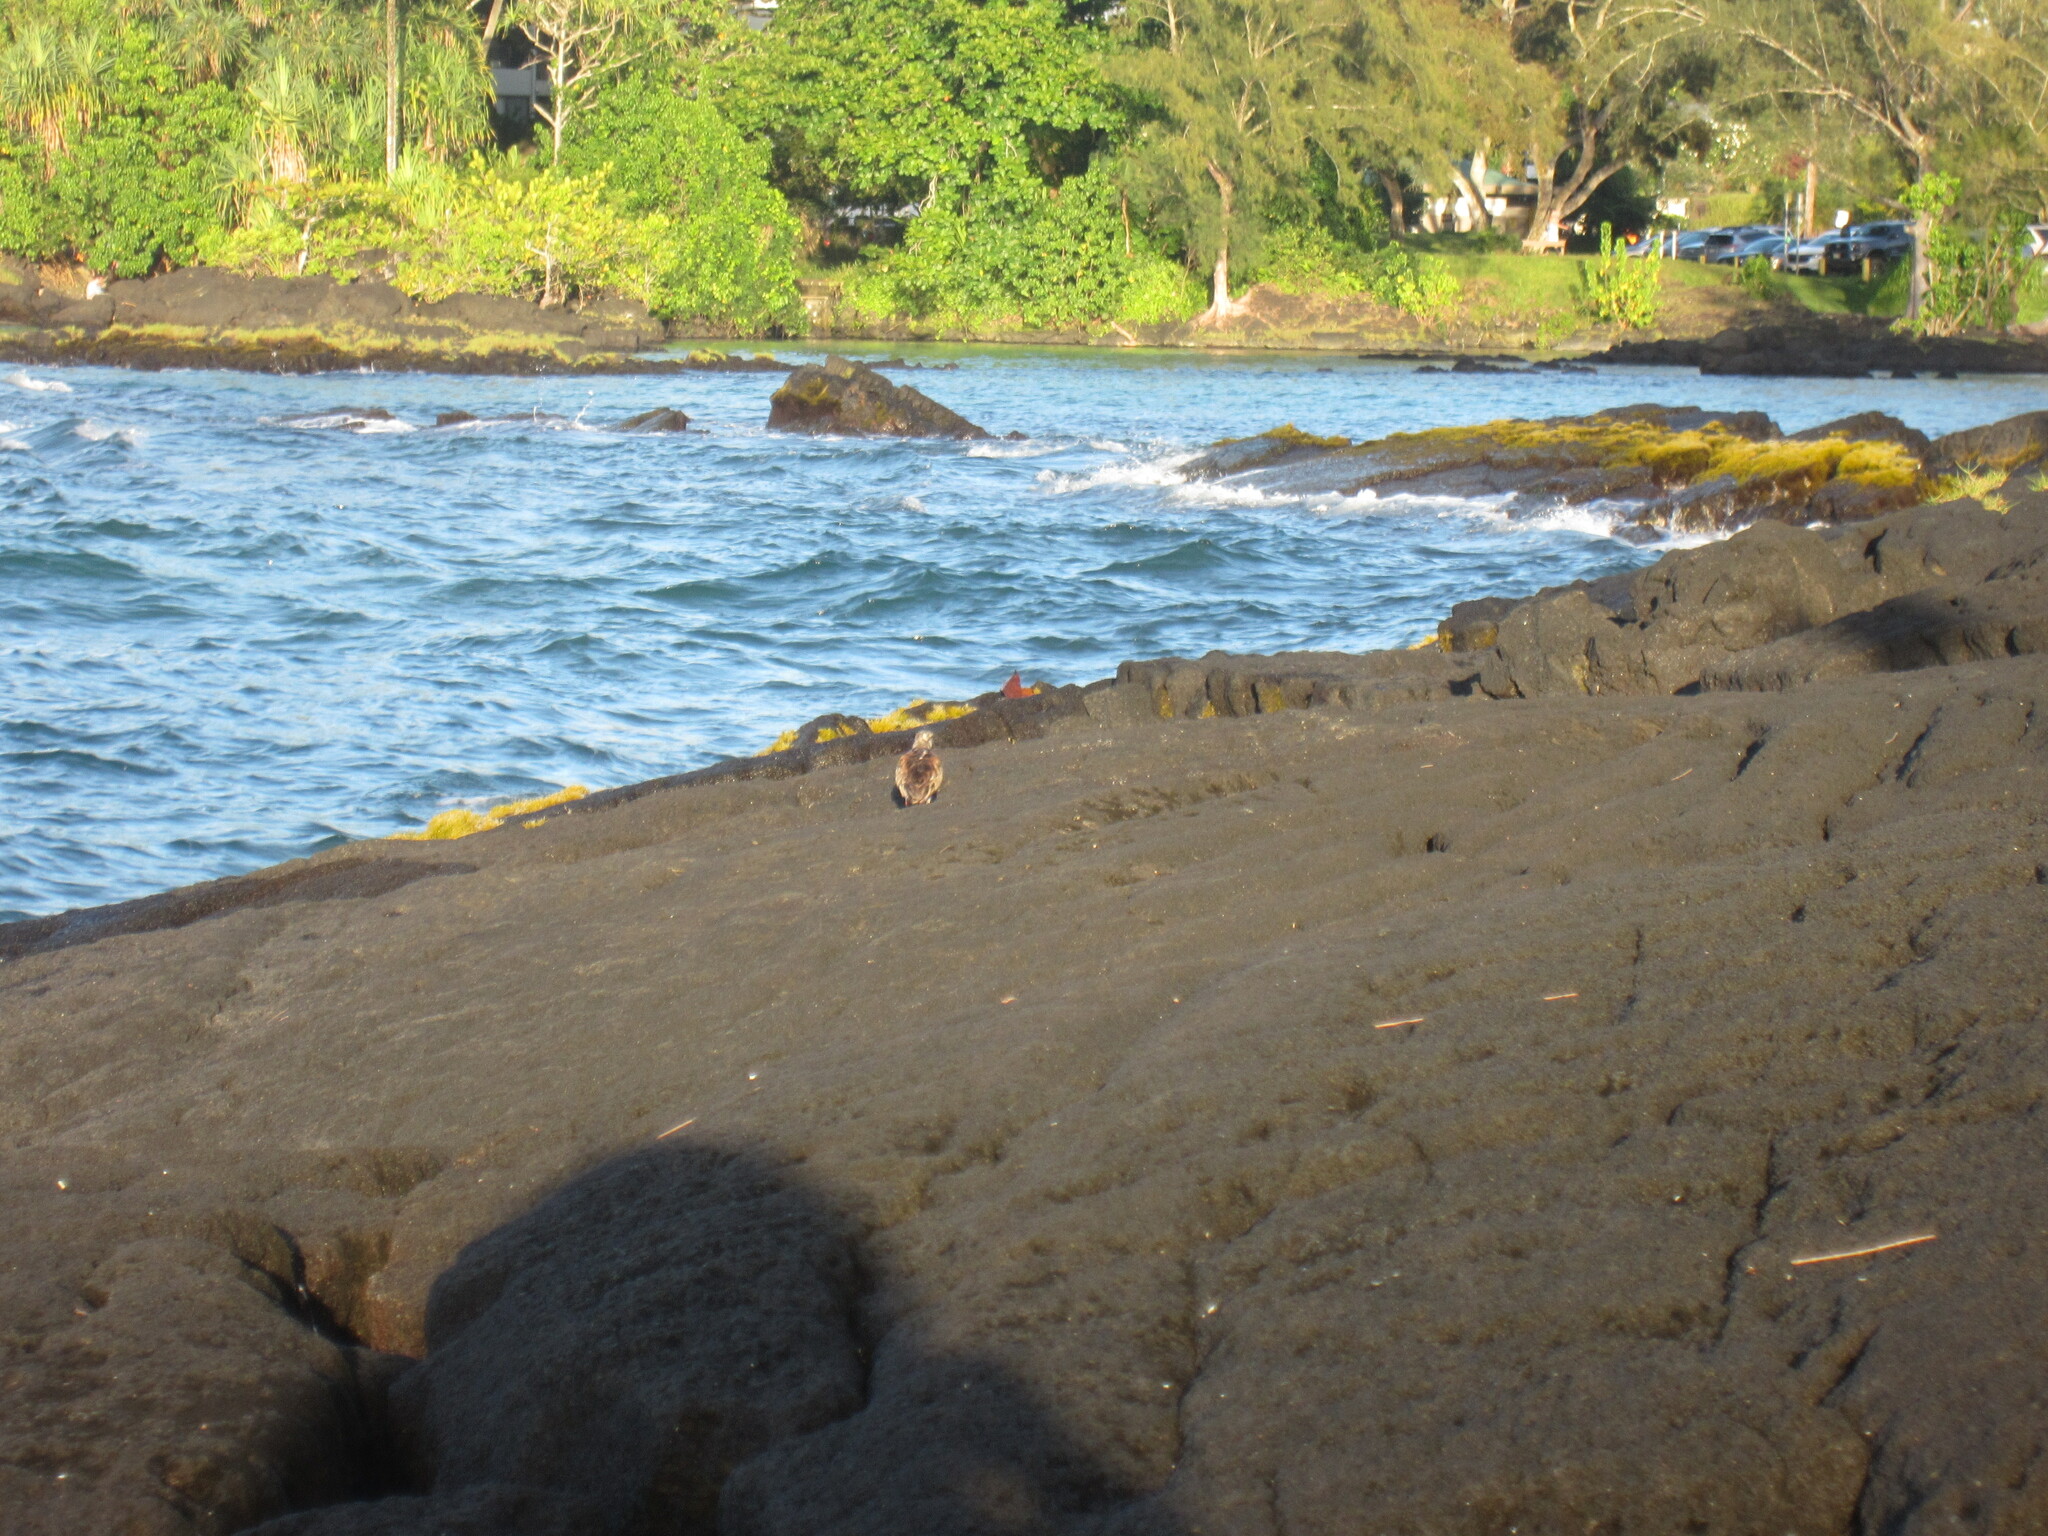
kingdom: Animalia
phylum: Chordata
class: Aves
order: Charadriiformes
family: Scolopacidae
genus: Arenaria
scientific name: Arenaria interpres
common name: Ruddy turnstone
